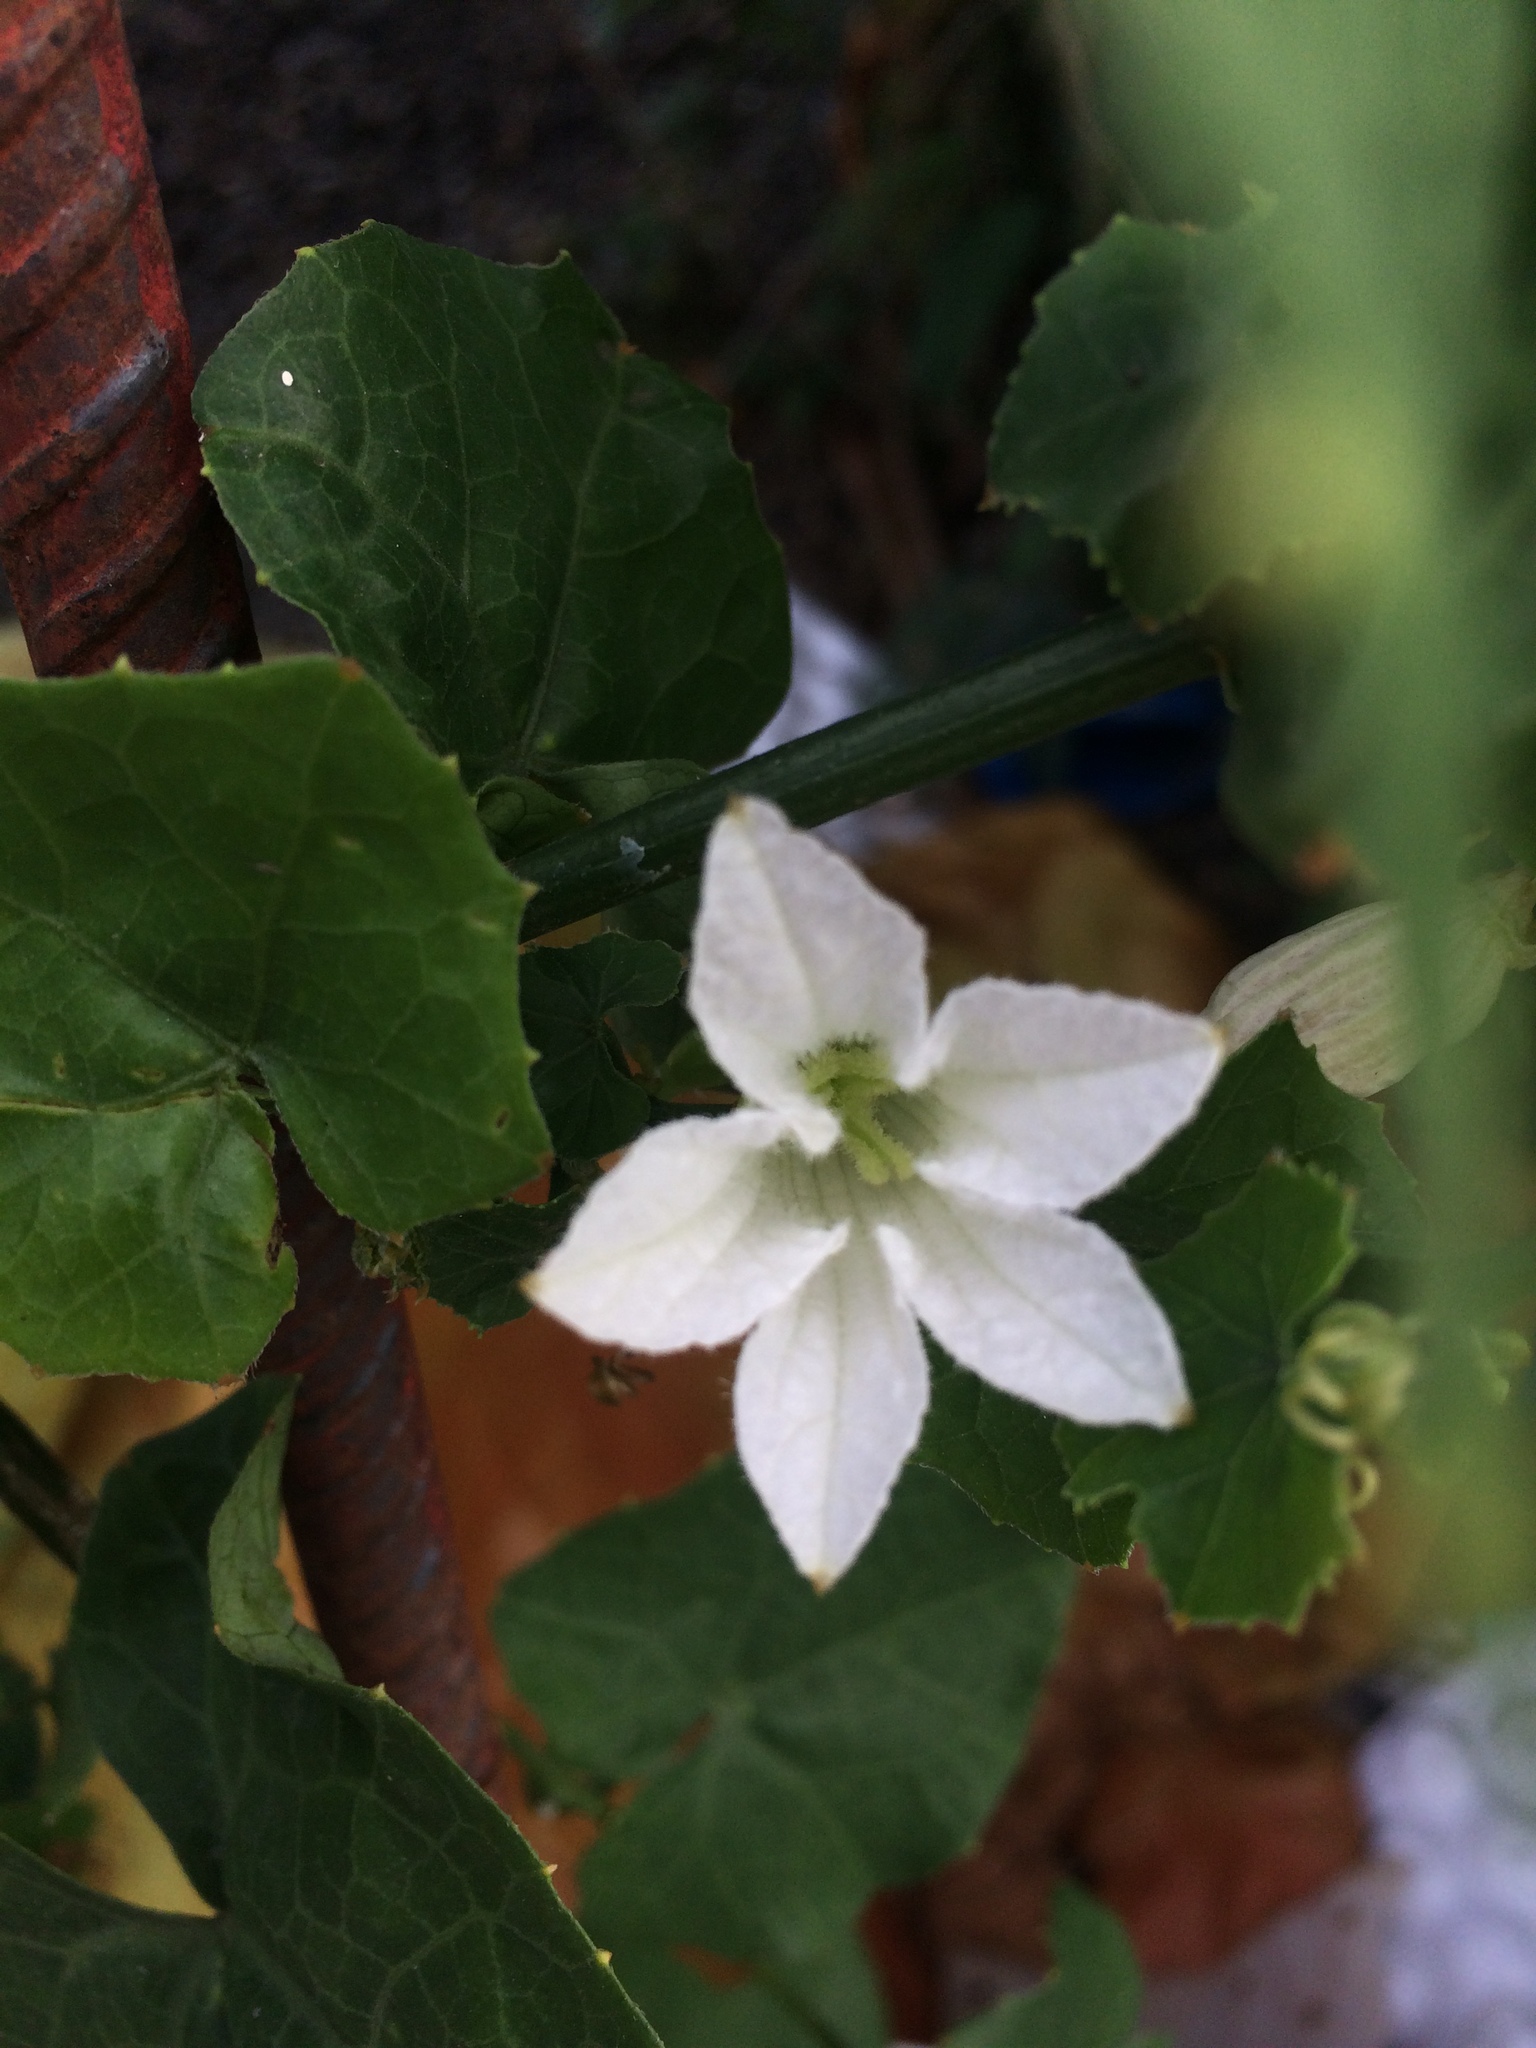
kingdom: Plantae
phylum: Tracheophyta
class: Magnoliopsida
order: Cucurbitales
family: Cucurbitaceae
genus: Coccinia
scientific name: Coccinia grandis
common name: Ivy gourd
